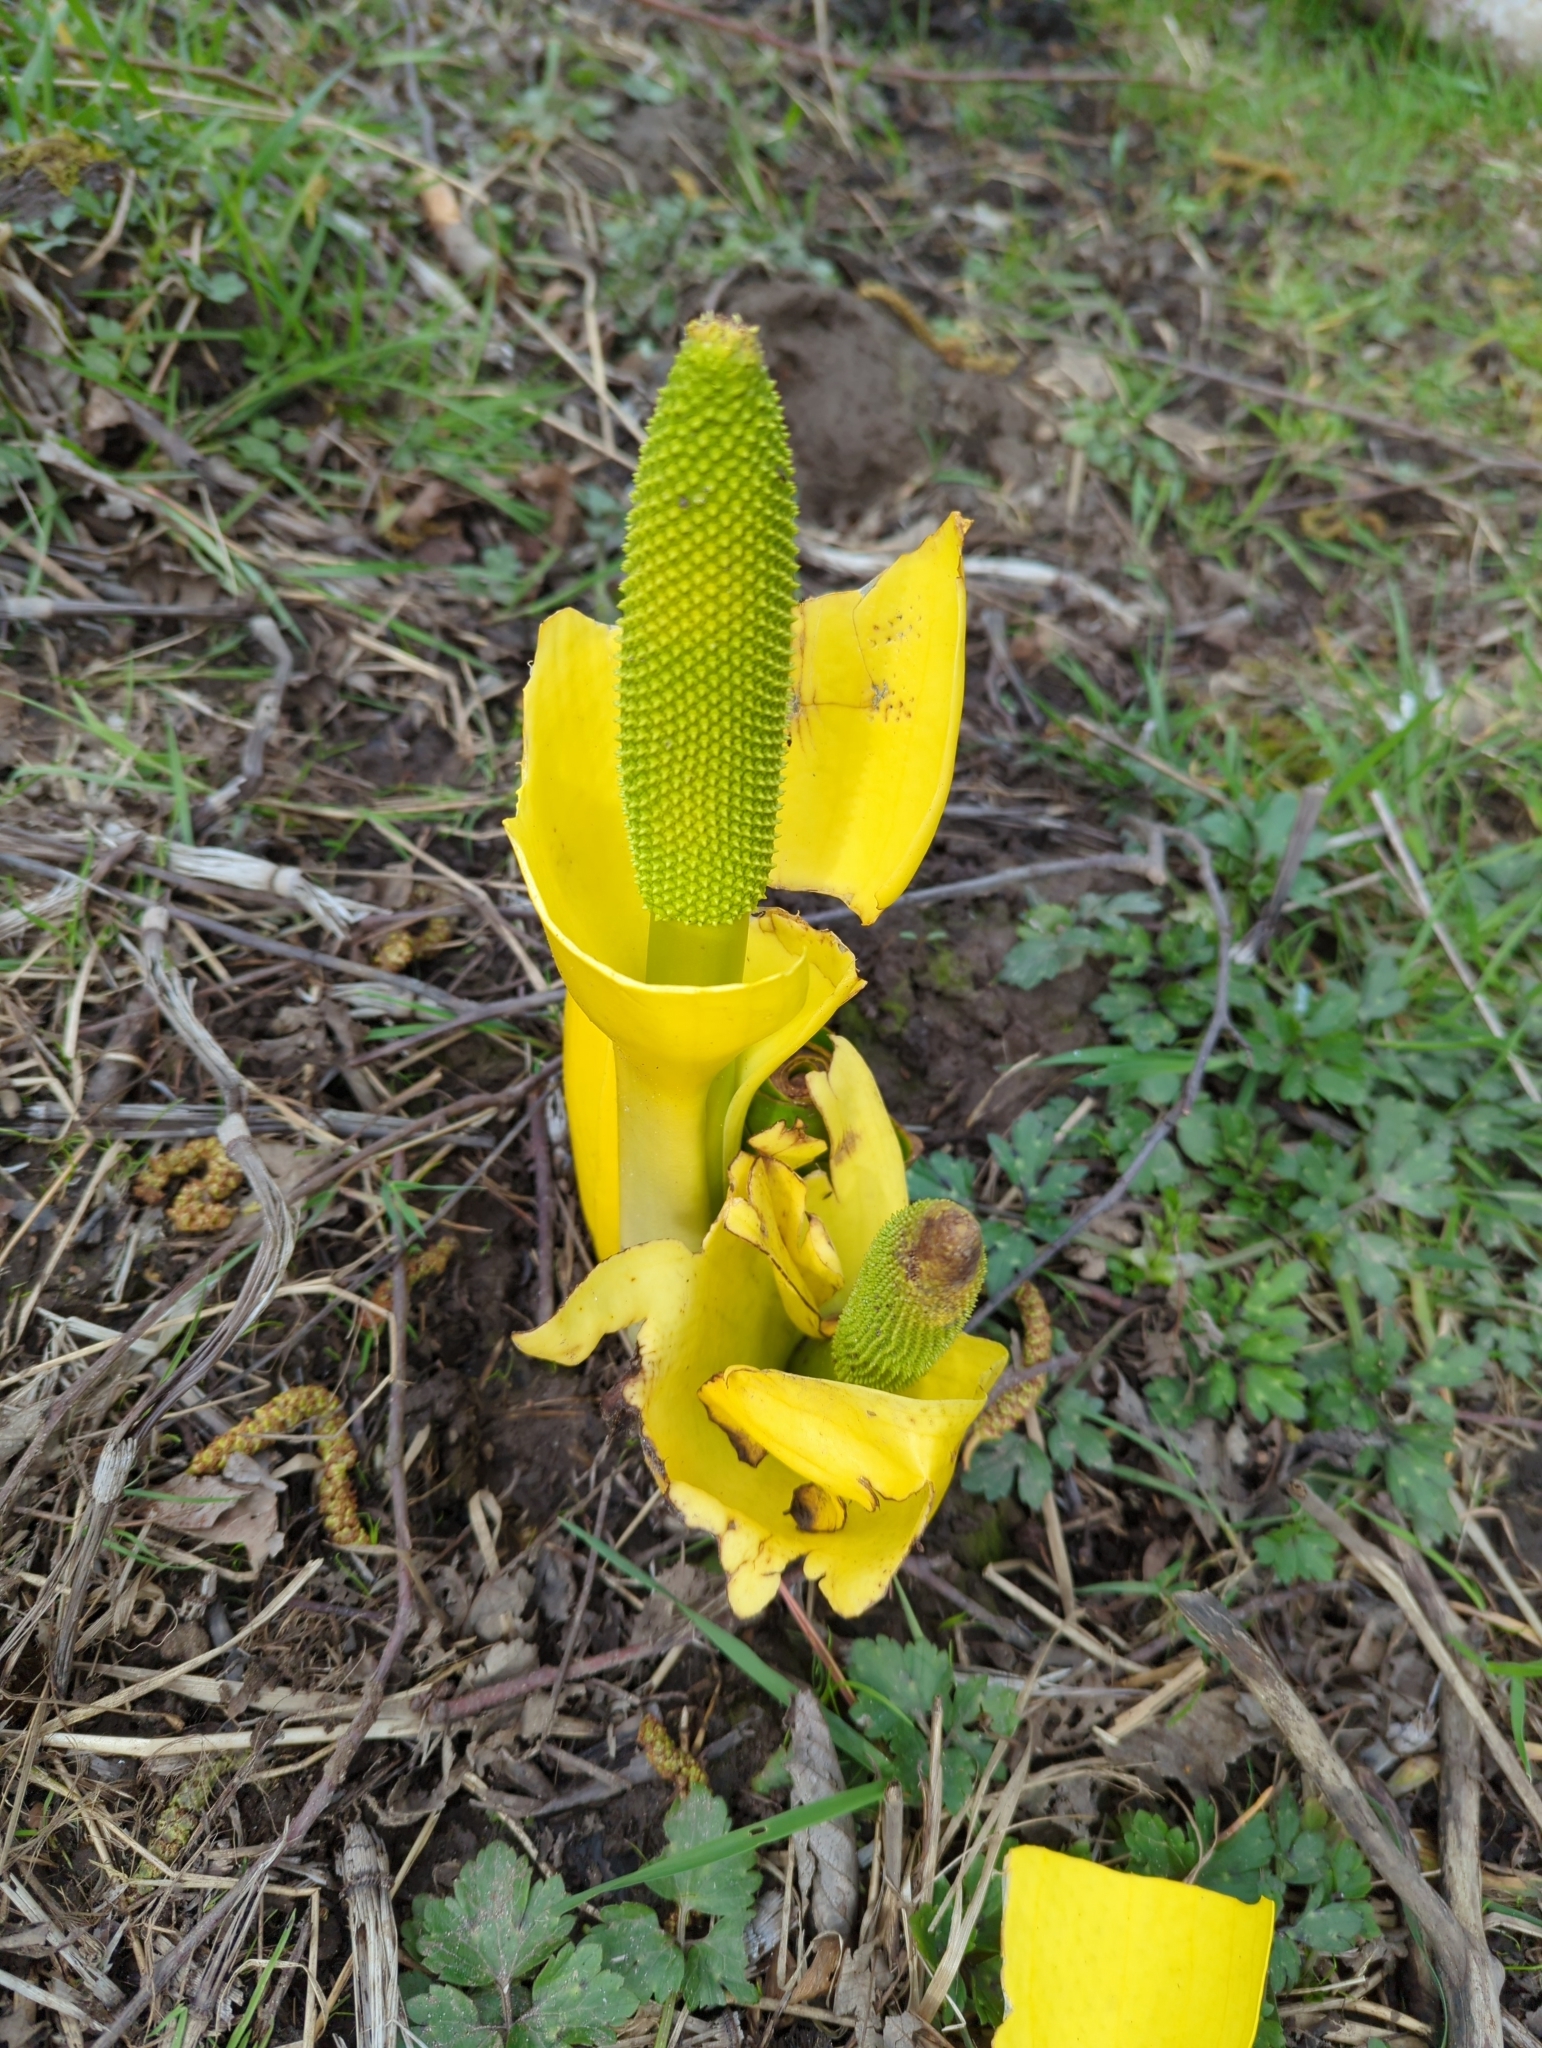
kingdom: Plantae
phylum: Tracheophyta
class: Liliopsida
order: Alismatales
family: Araceae
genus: Lysichiton
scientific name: Lysichiton americanus
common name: American skunk cabbage
